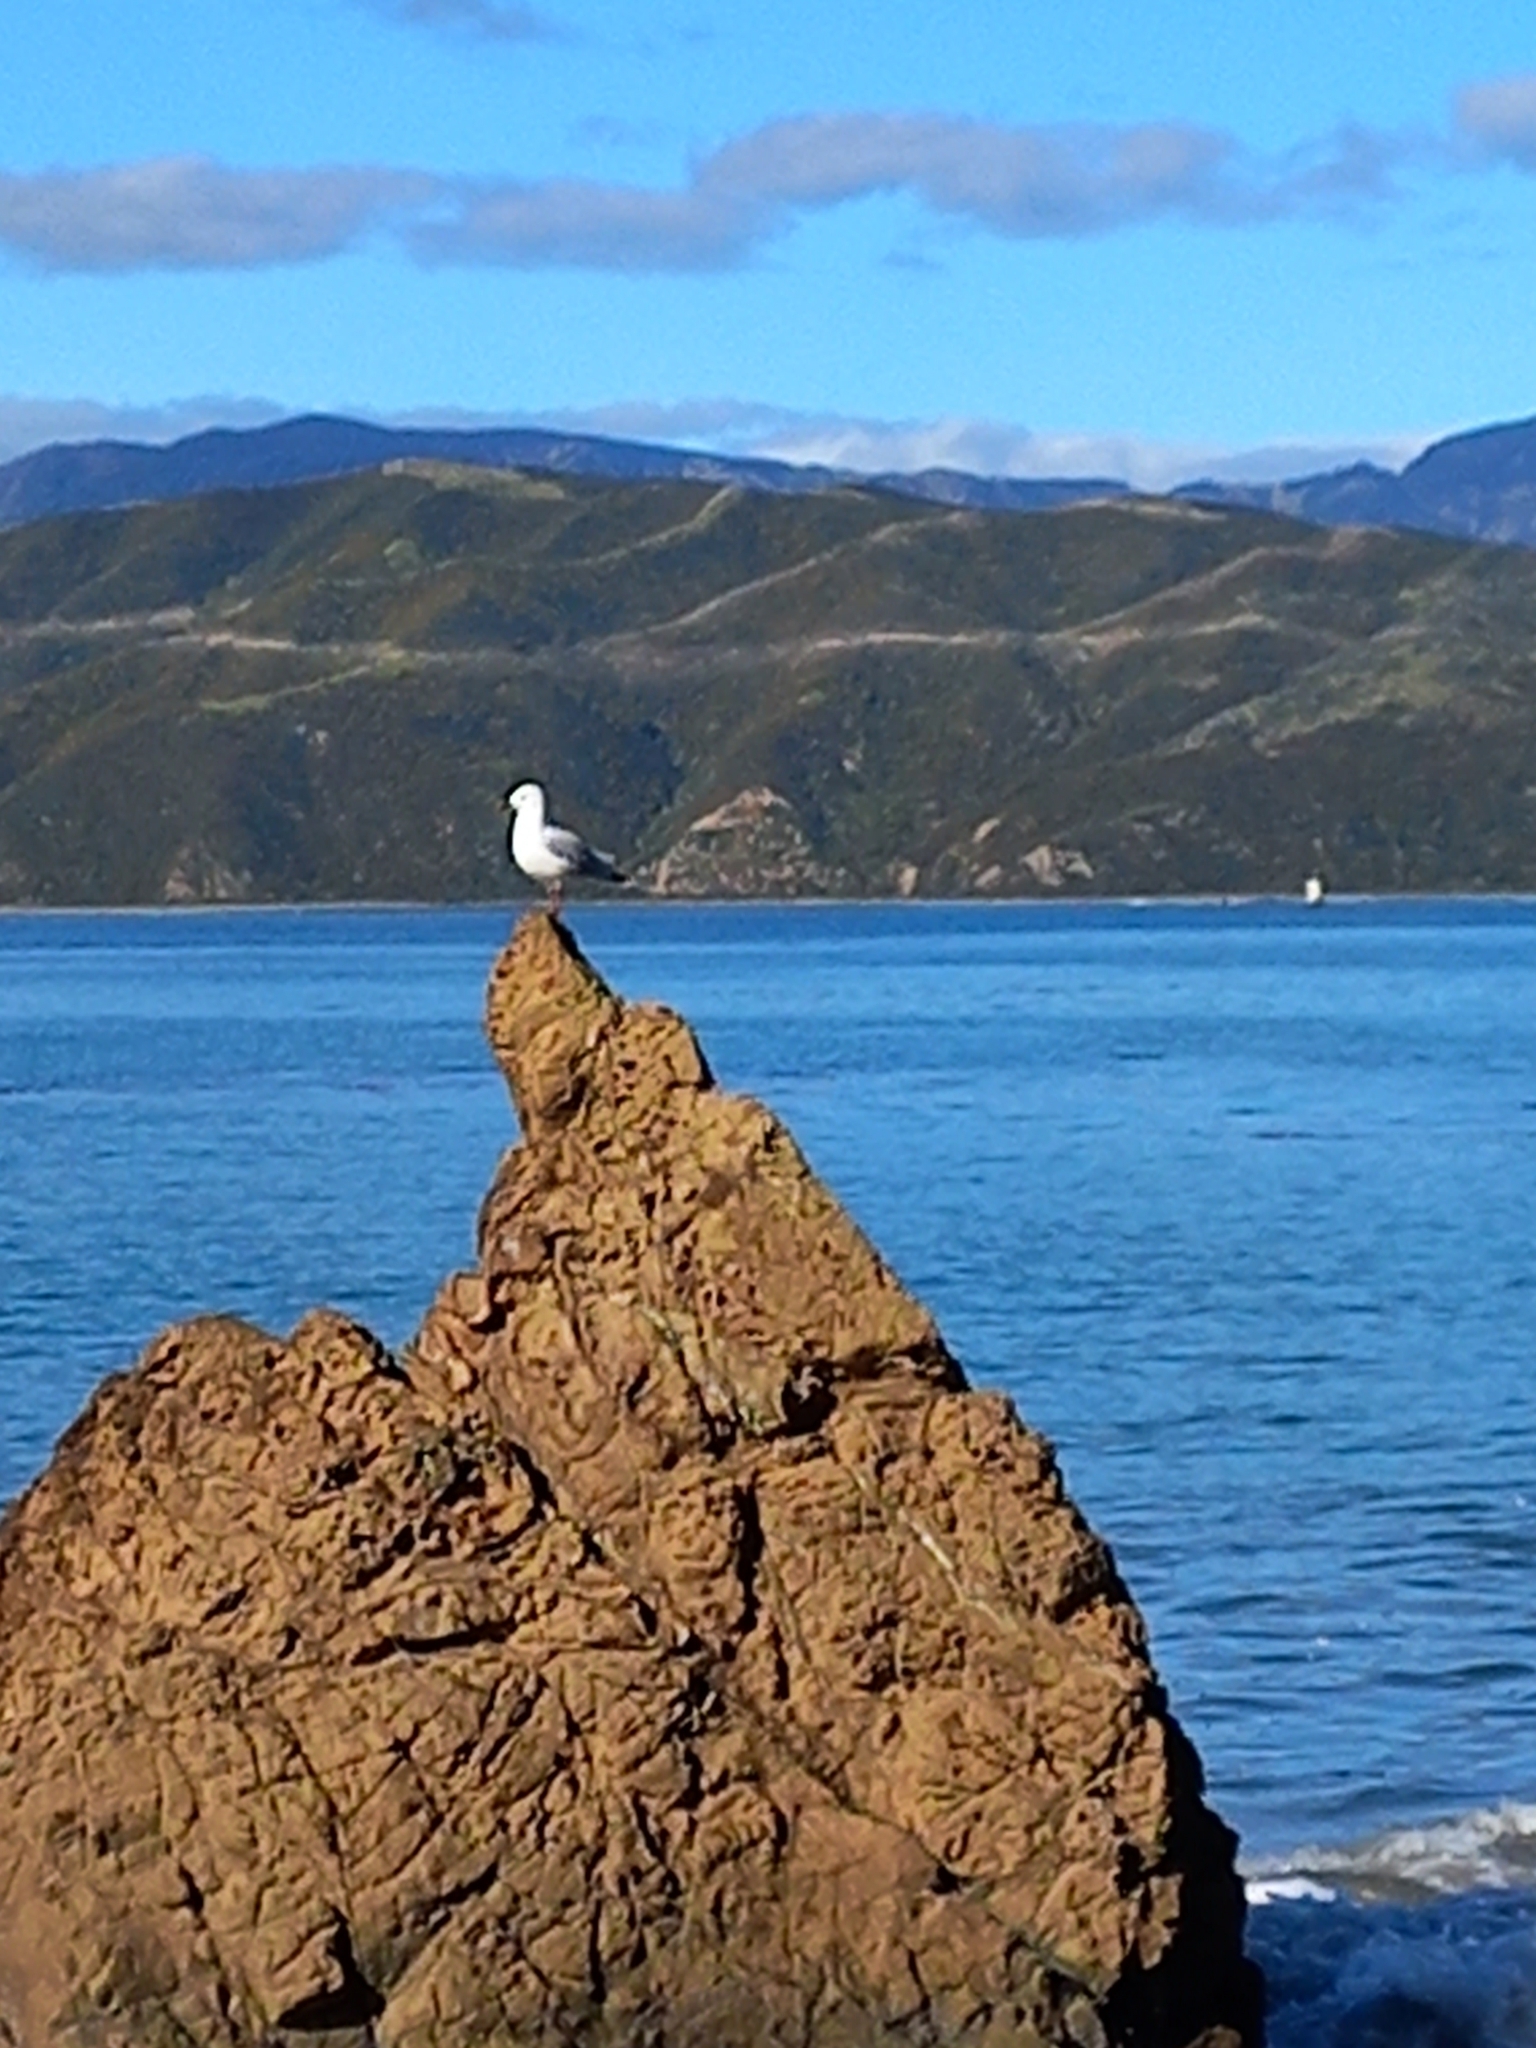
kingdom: Animalia
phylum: Chordata
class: Aves
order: Charadriiformes
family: Laridae
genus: Chroicocephalus
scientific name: Chroicocephalus novaehollandiae
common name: Silver gull
